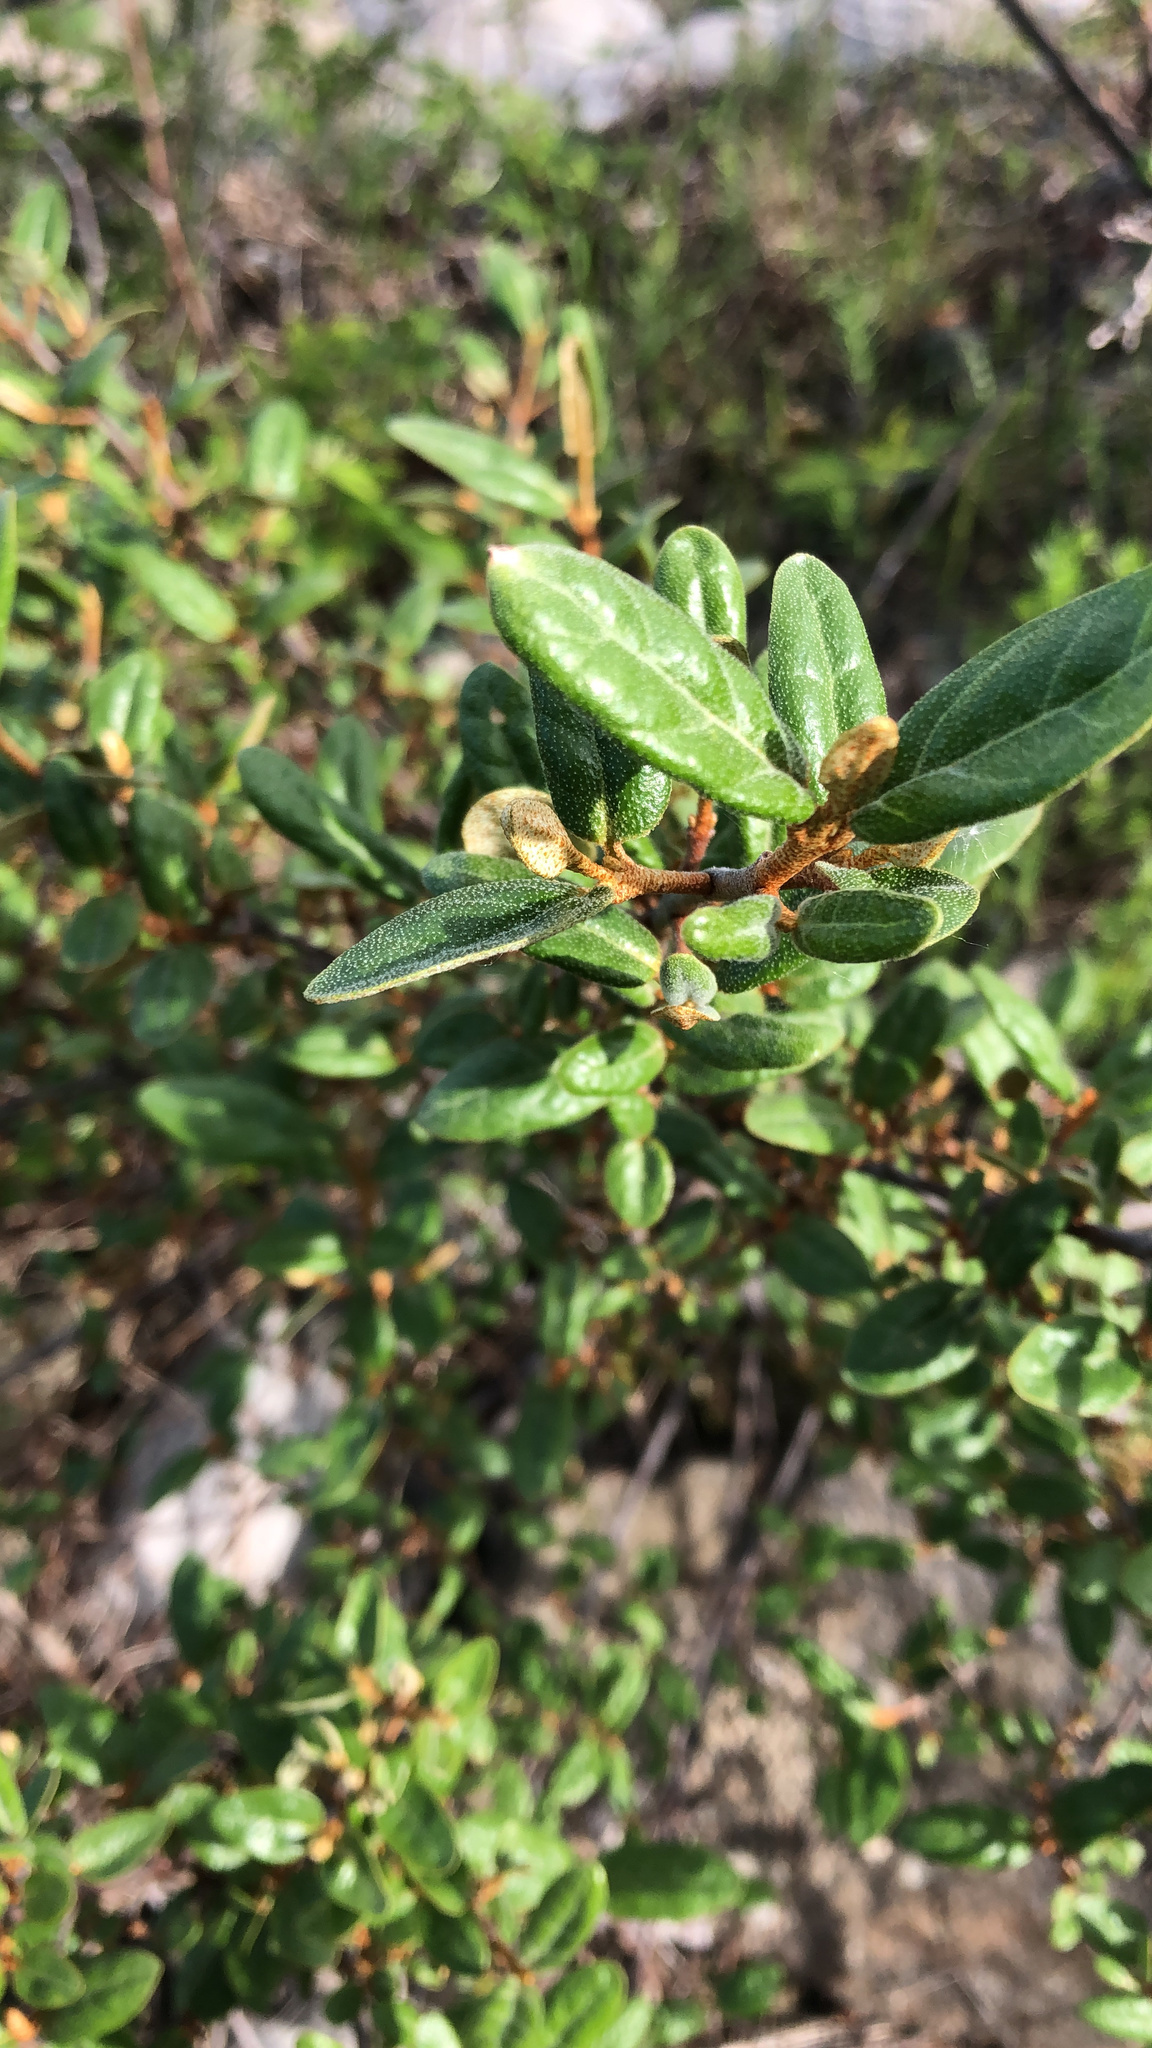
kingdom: Plantae
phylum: Tracheophyta
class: Magnoliopsida
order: Rosales
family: Elaeagnaceae
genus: Shepherdia
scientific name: Shepherdia canadensis
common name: Soapberry
